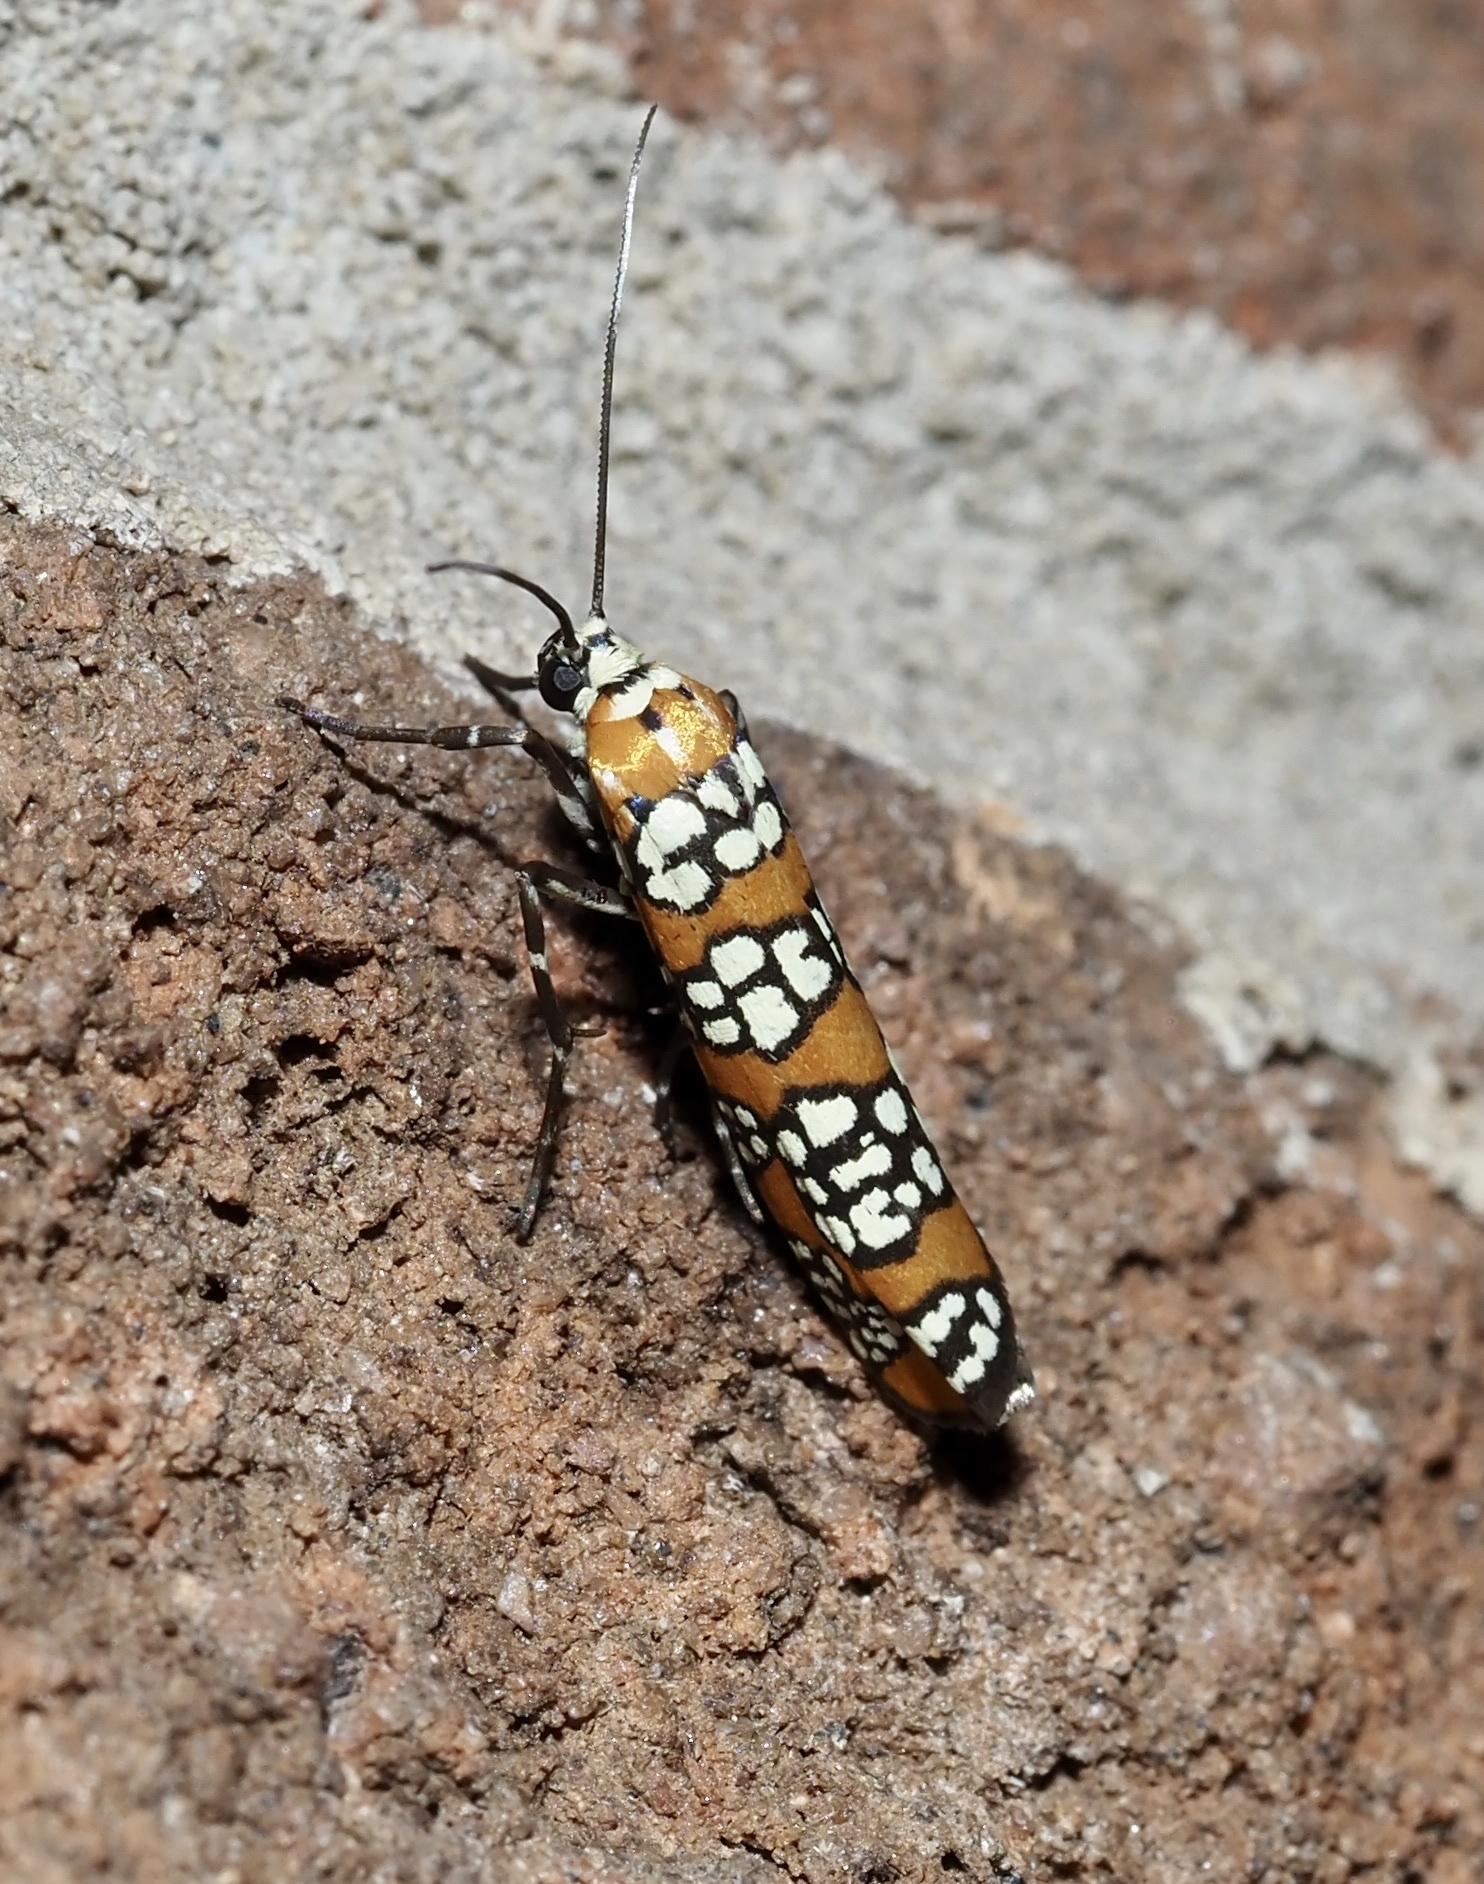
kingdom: Animalia
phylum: Arthropoda
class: Insecta
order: Lepidoptera
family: Attevidae
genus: Atteva
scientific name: Atteva punctella
